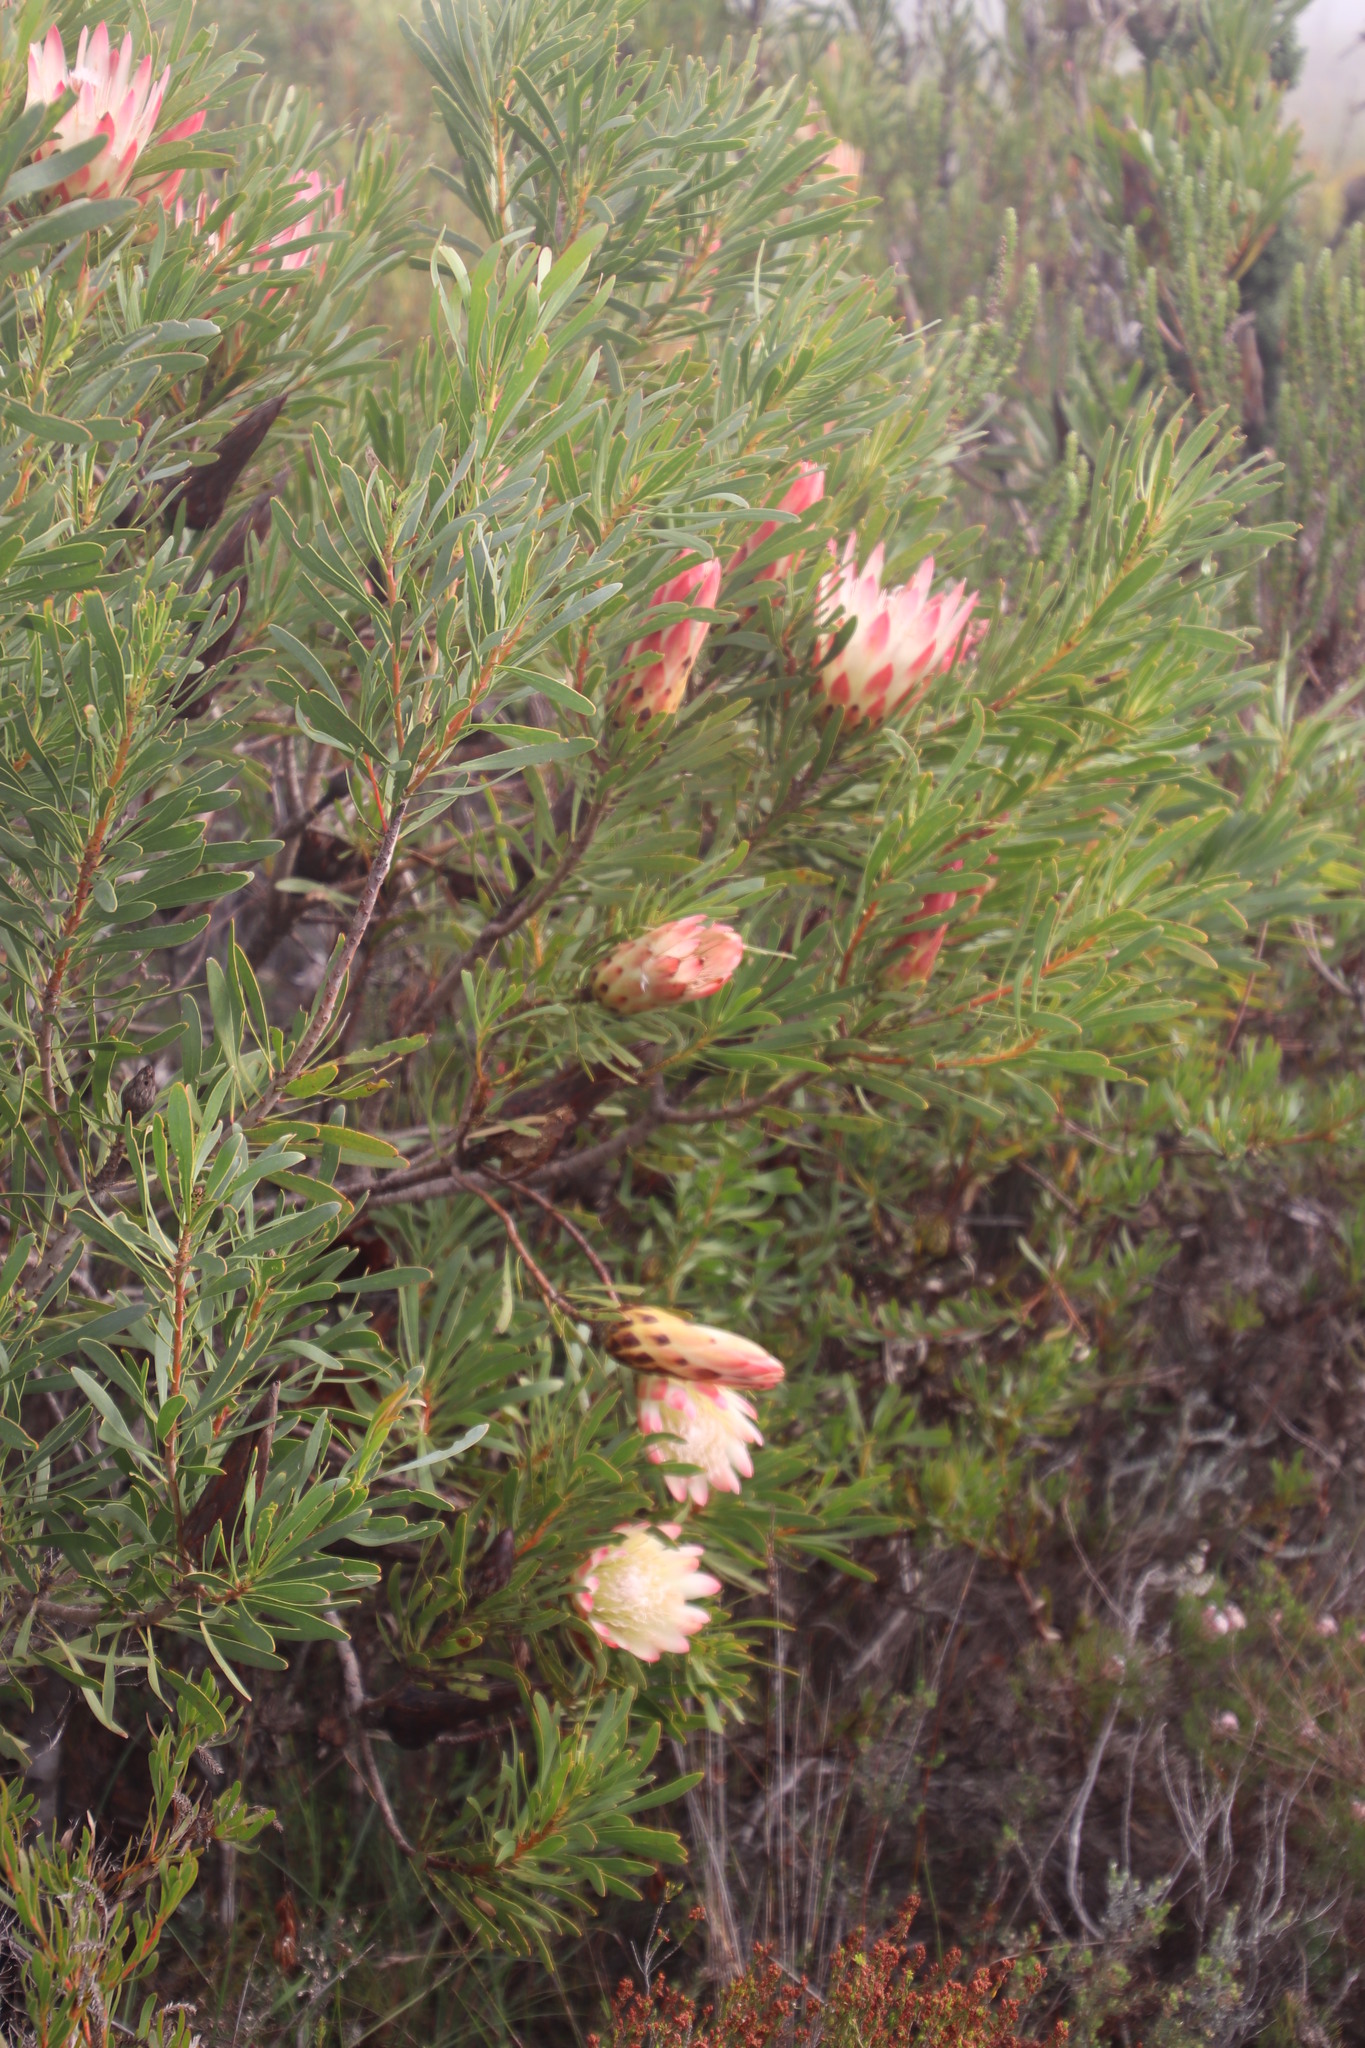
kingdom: Plantae
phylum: Tracheophyta
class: Magnoliopsida
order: Proteales
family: Proteaceae
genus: Protea
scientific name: Protea repens
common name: Sugarbush
